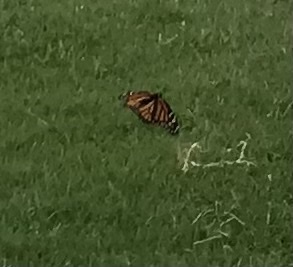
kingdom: Animalia
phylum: Arthropoda
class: Insecta
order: Lepidoptera
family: Nymphalidae
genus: Danaus
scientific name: Danaus plexippus
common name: Monarch
